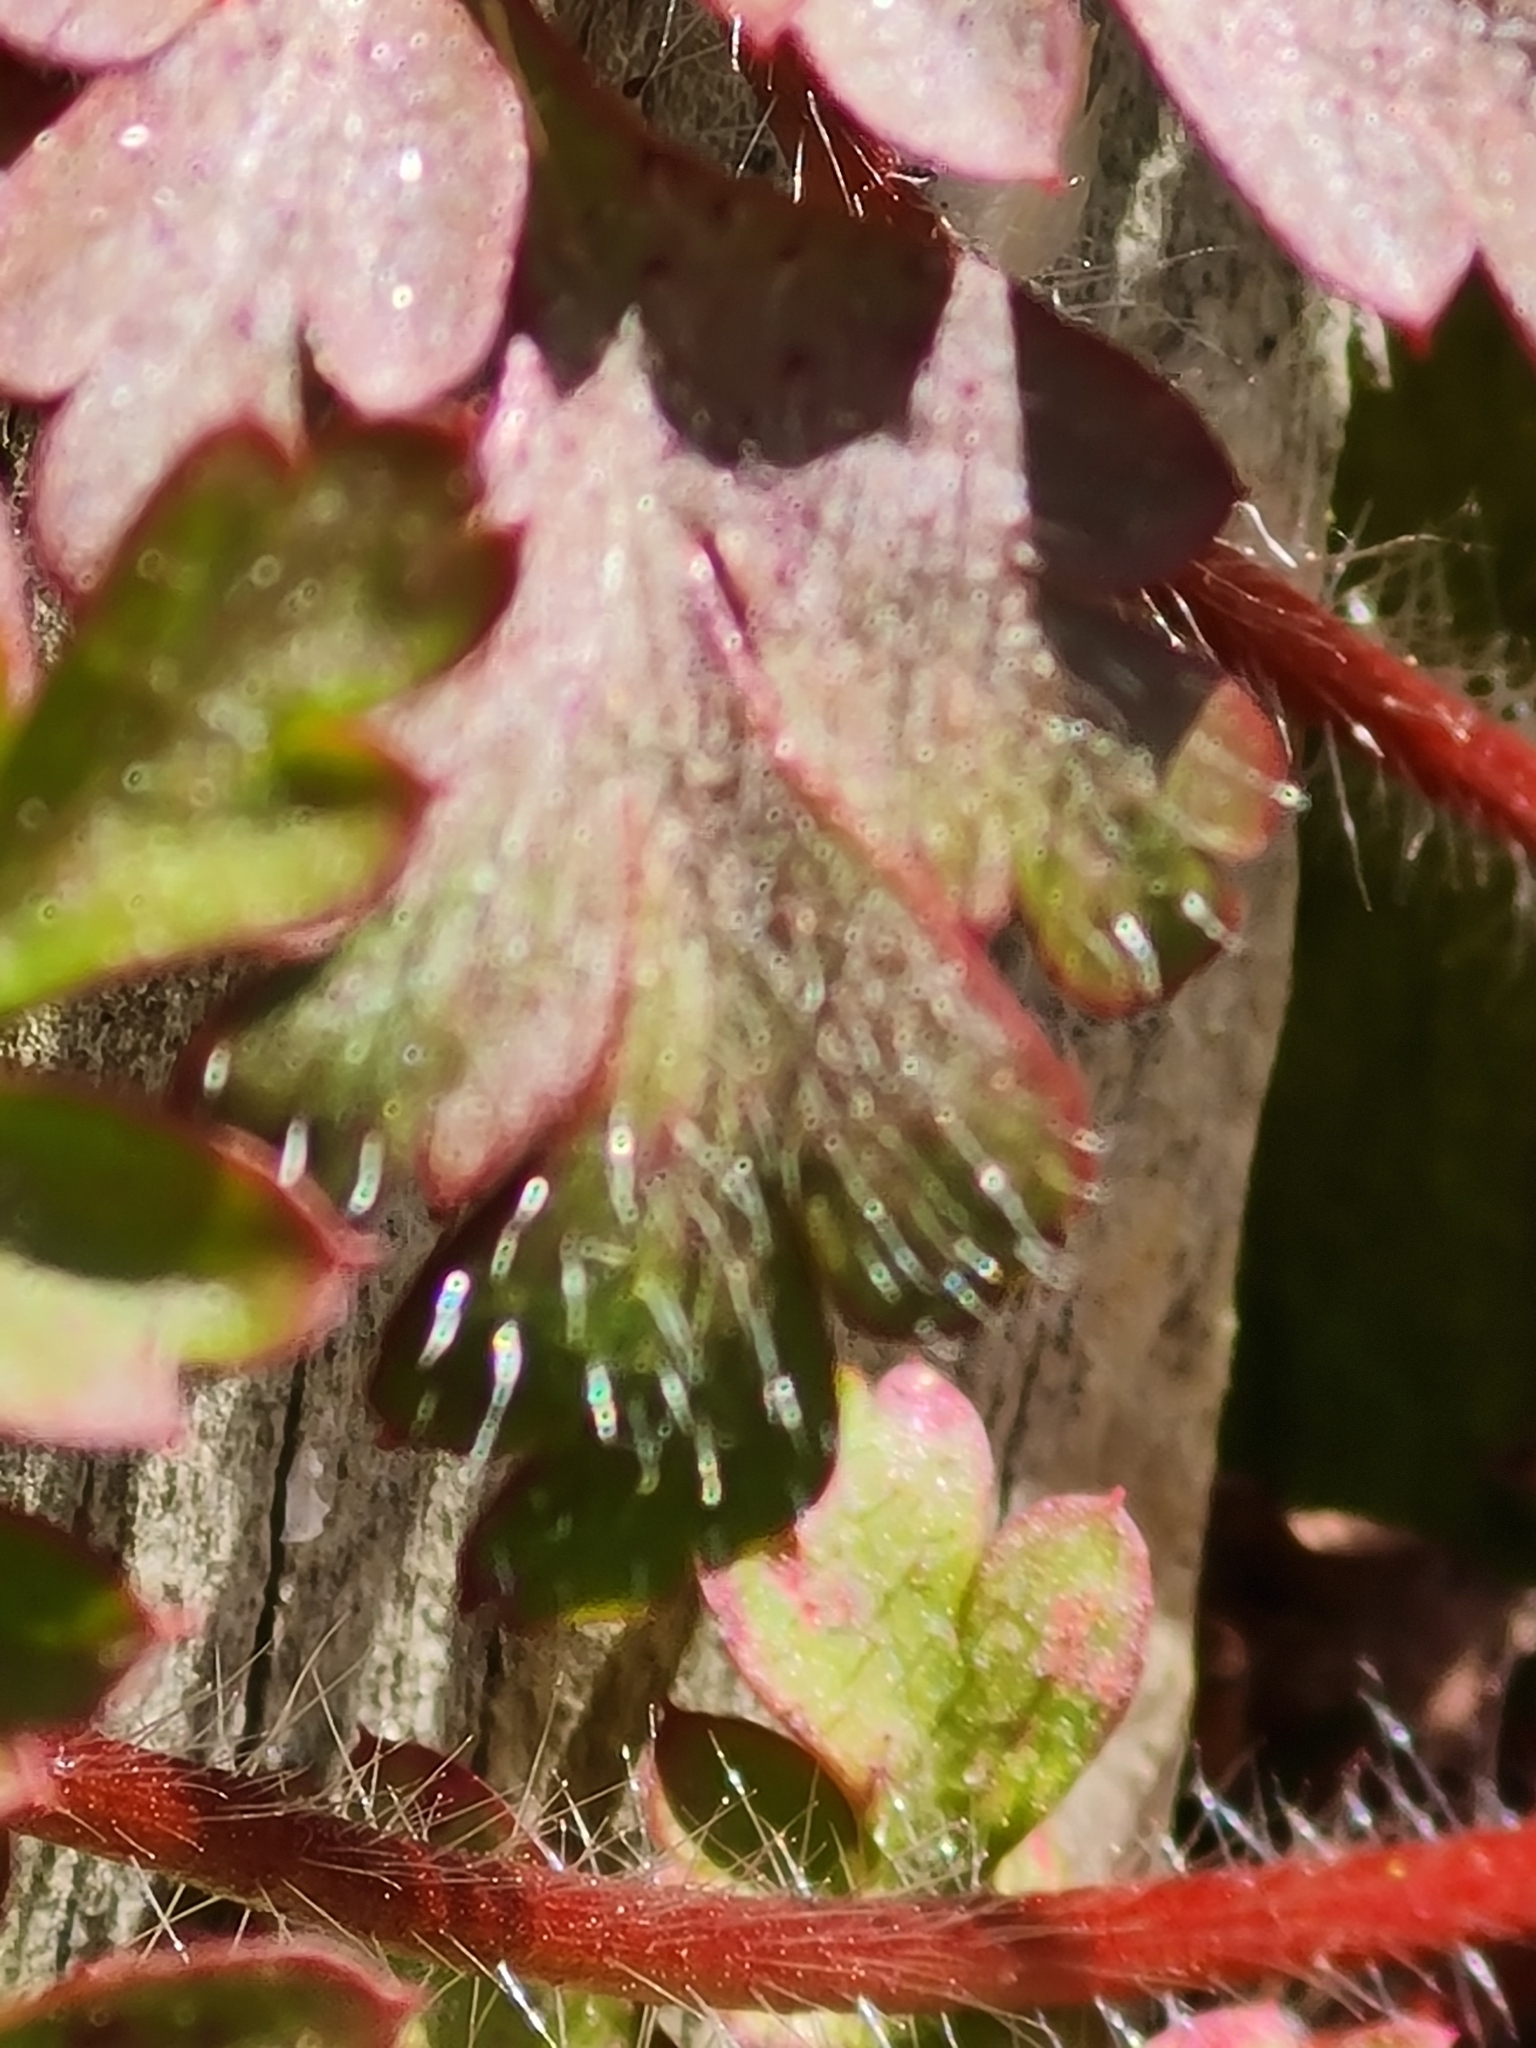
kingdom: Plantae
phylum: Tracheophyta
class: Magnoliopsida
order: Geraniales
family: Geraniaceae
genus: Geranium
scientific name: Geranium robertianum
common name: Herb-robert
